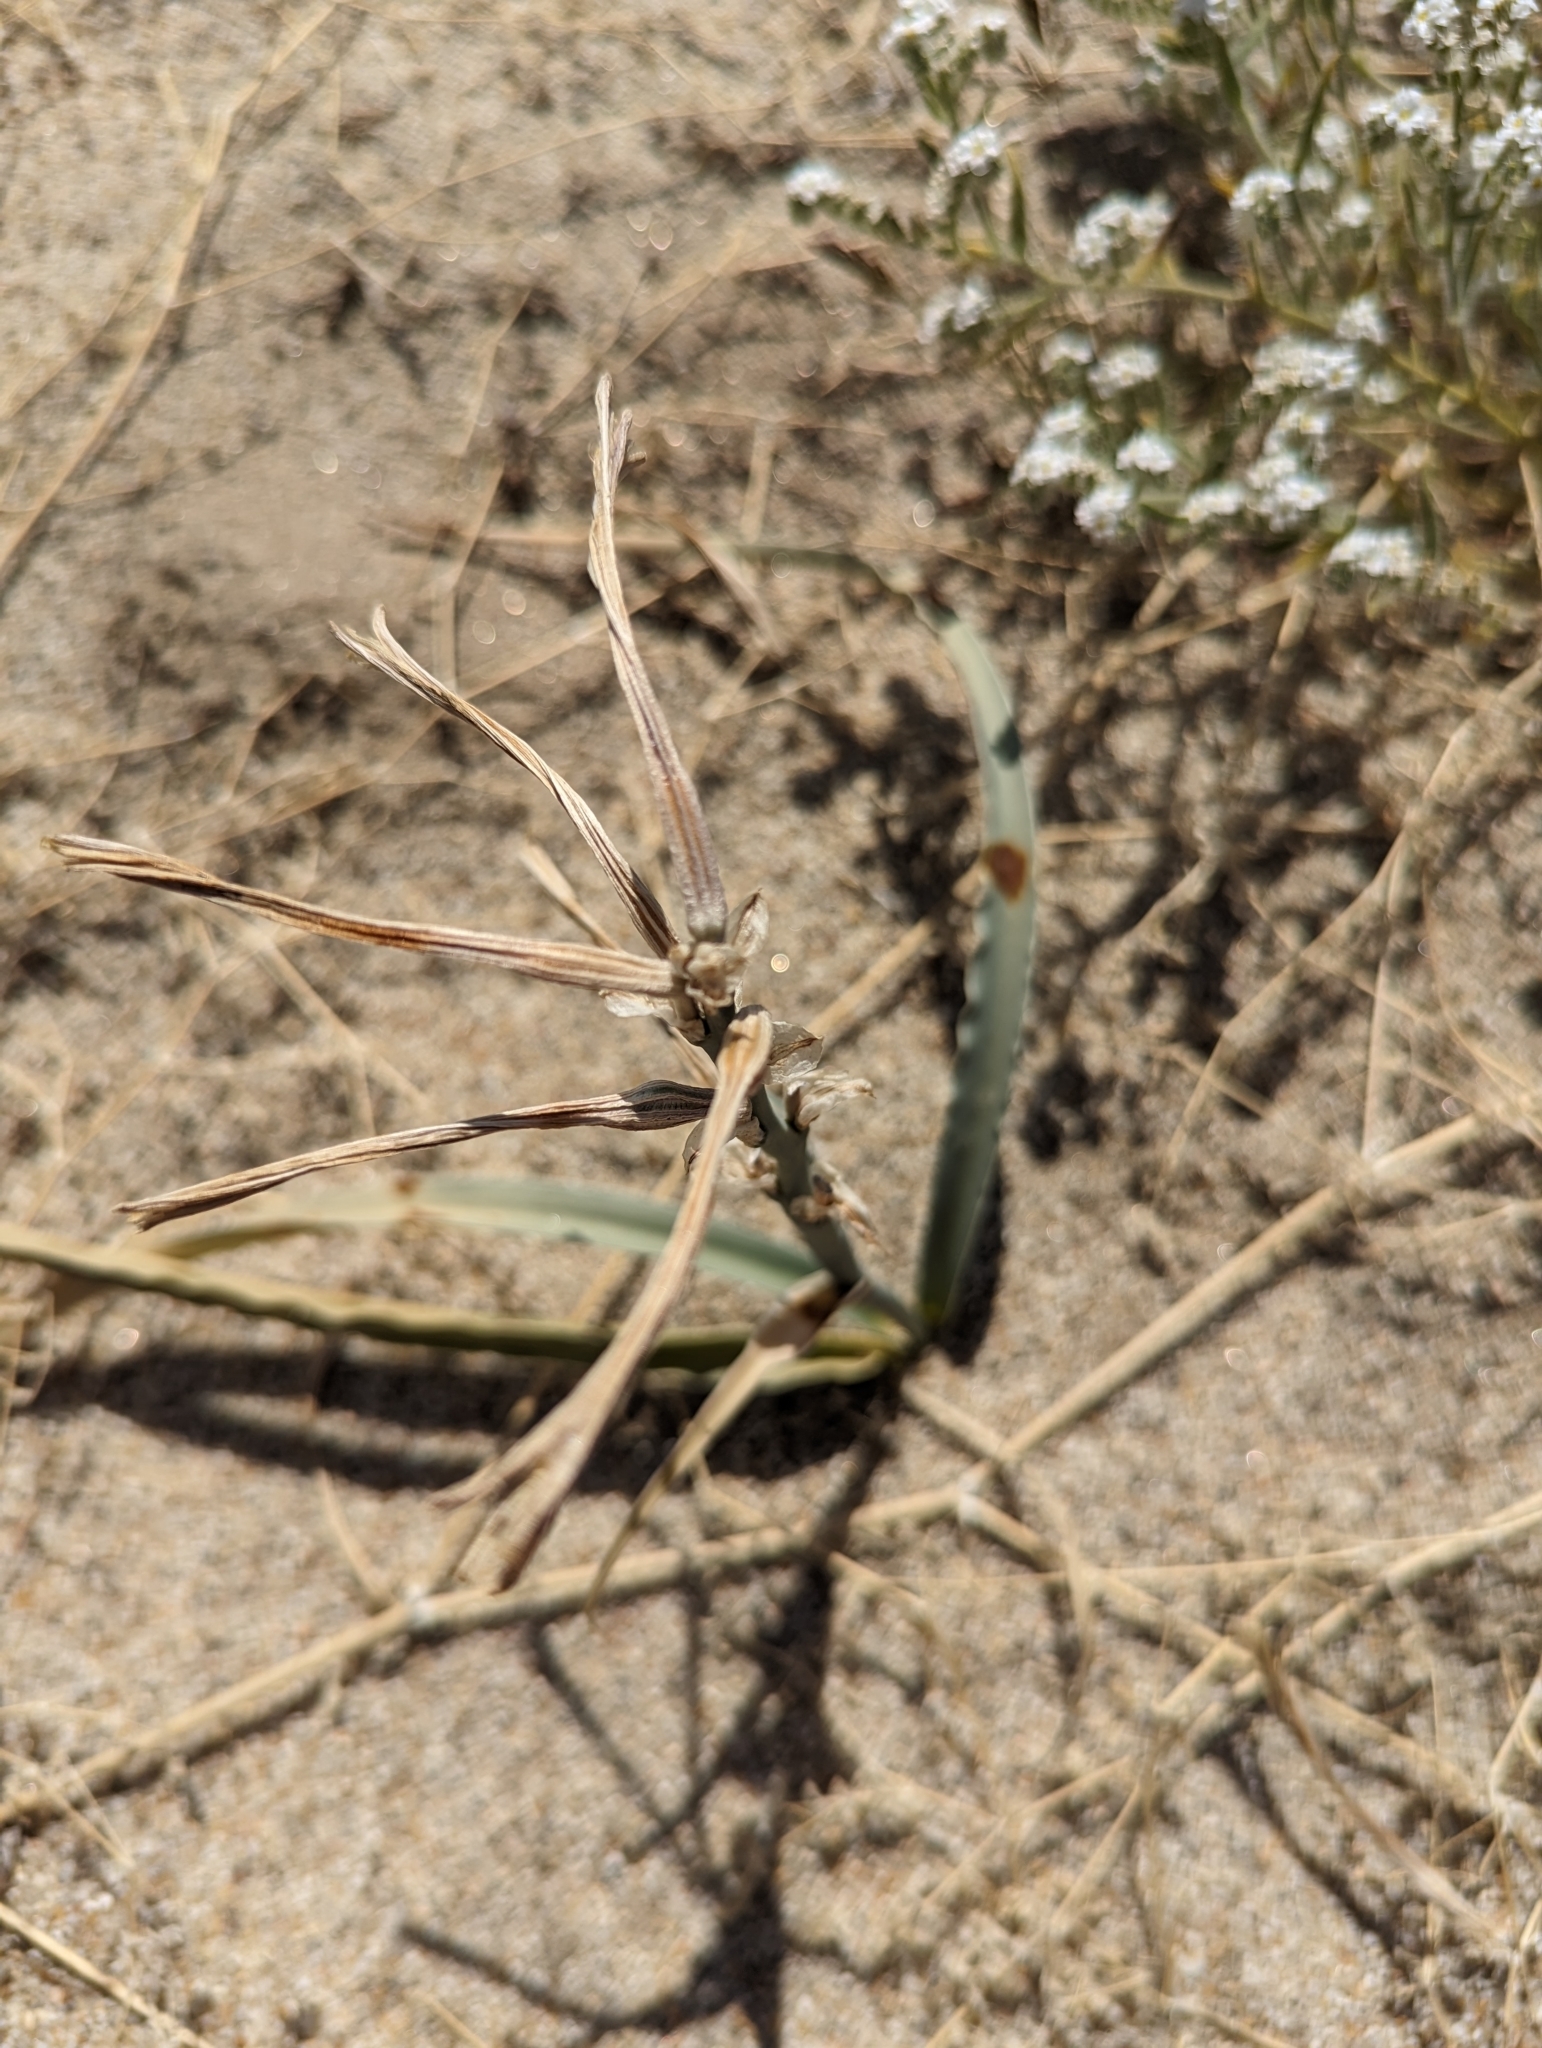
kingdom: Plantae
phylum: Tracheophyta
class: Liliopsida
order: Asparagales
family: Asparagaceae
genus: Hesperocallis
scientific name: Hesperocallis undulata
